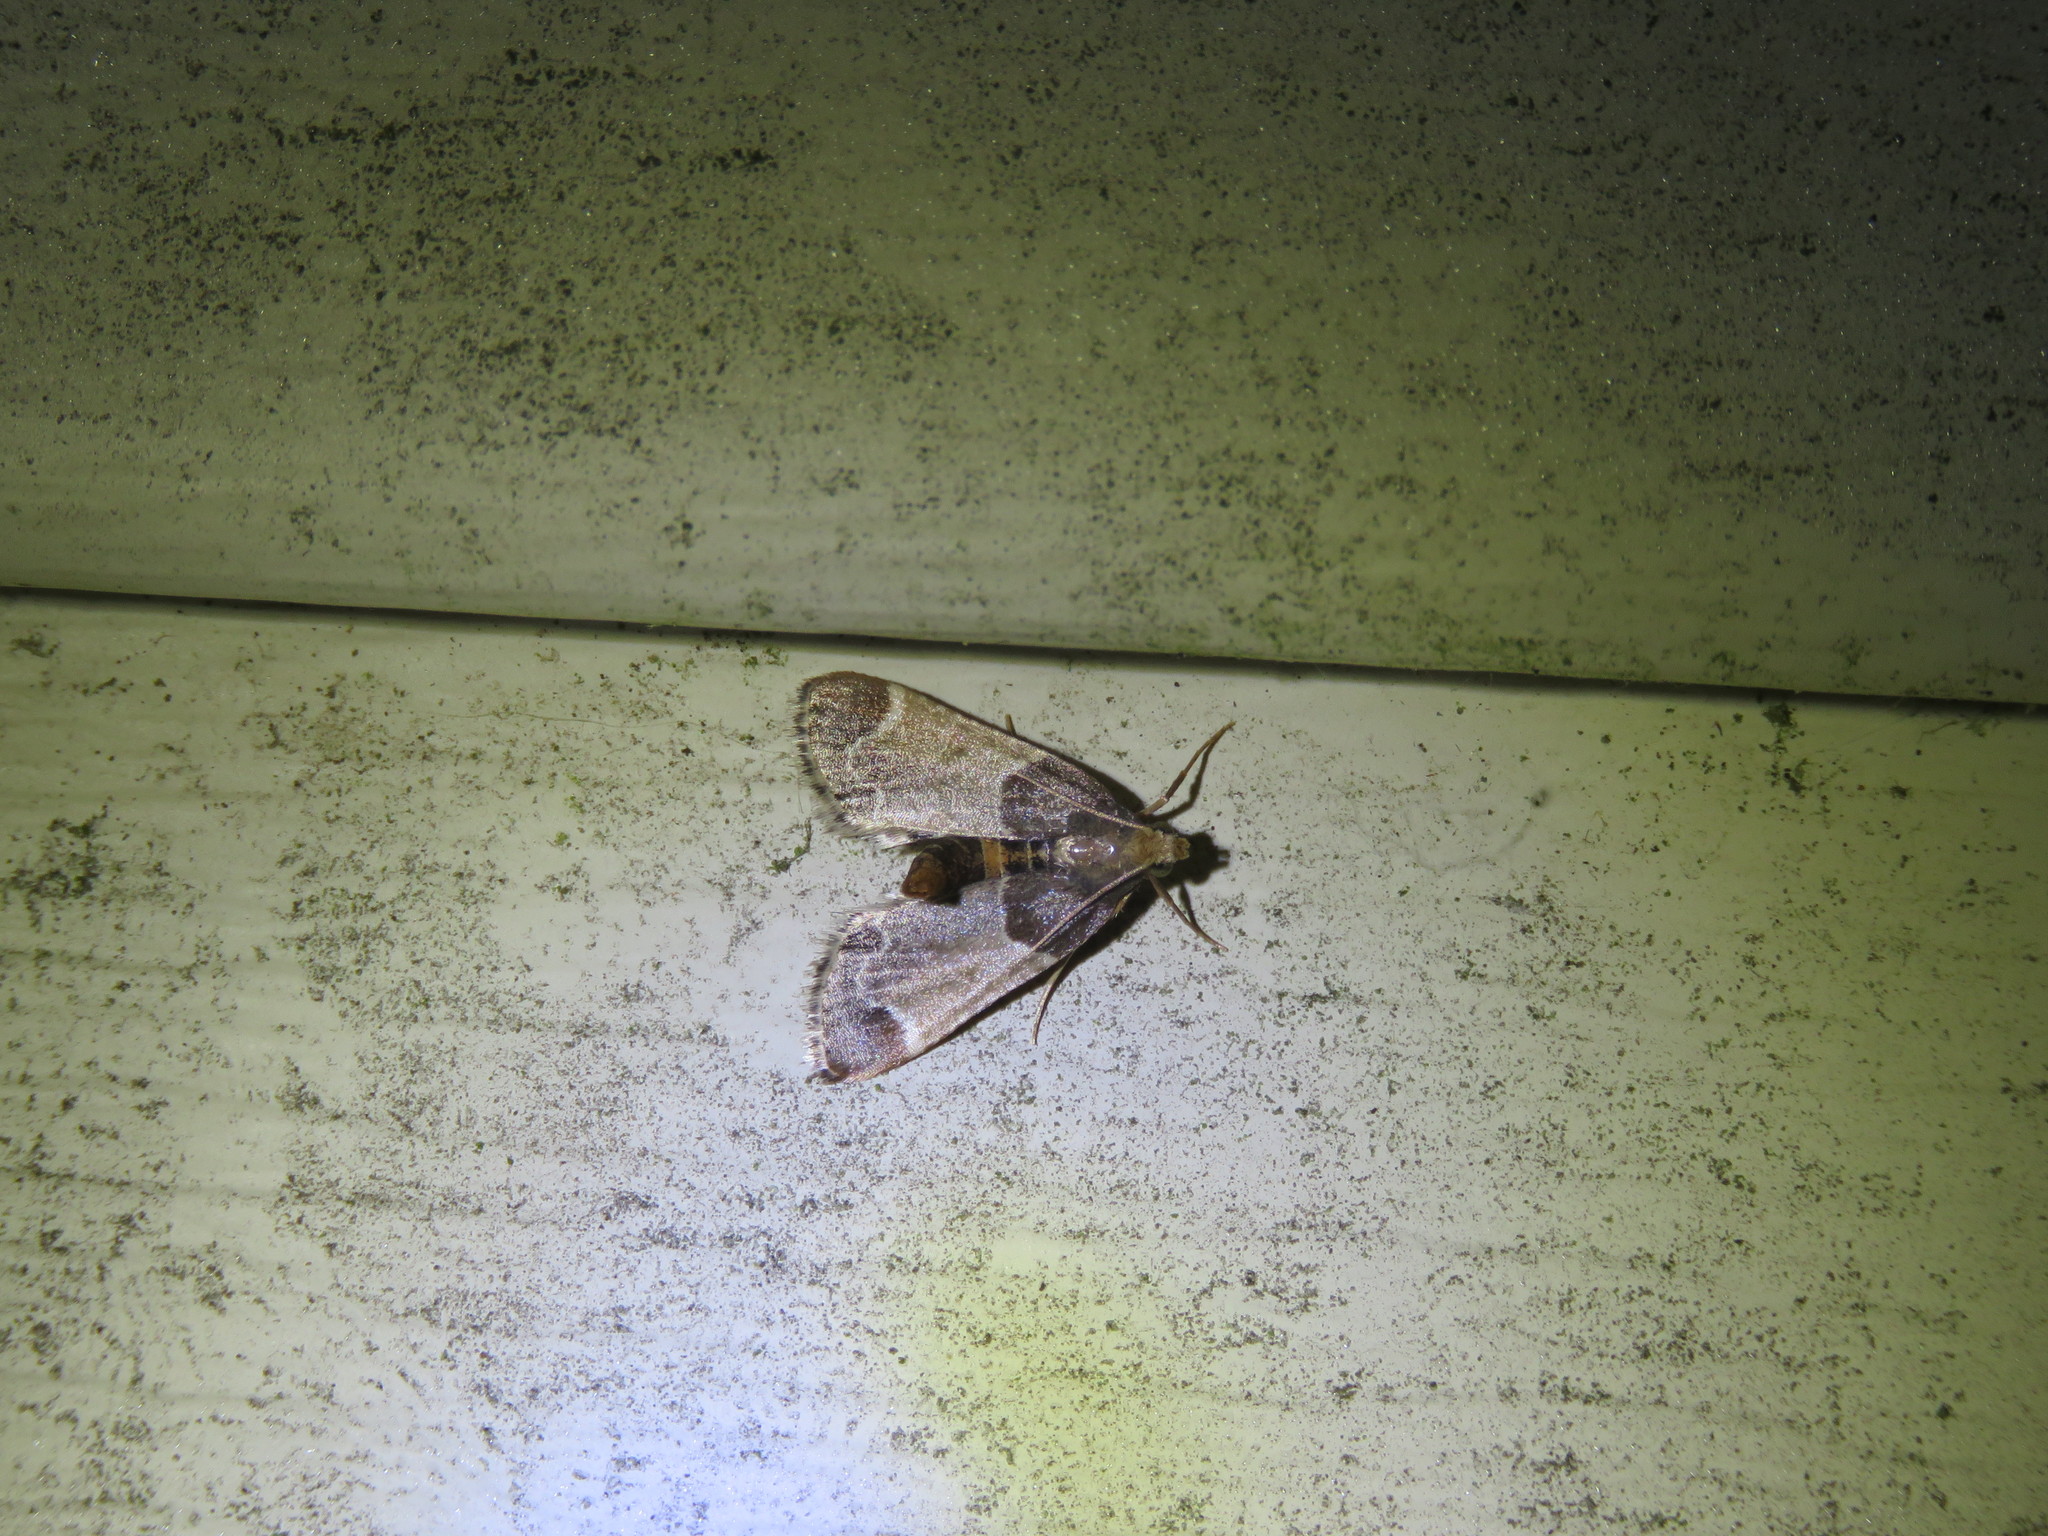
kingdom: Animalia
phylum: Arthropoda
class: Insecta
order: Lepidoptera
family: Pyralidae
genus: Pyralis
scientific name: Pyralis farinalis
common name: Meal moth
